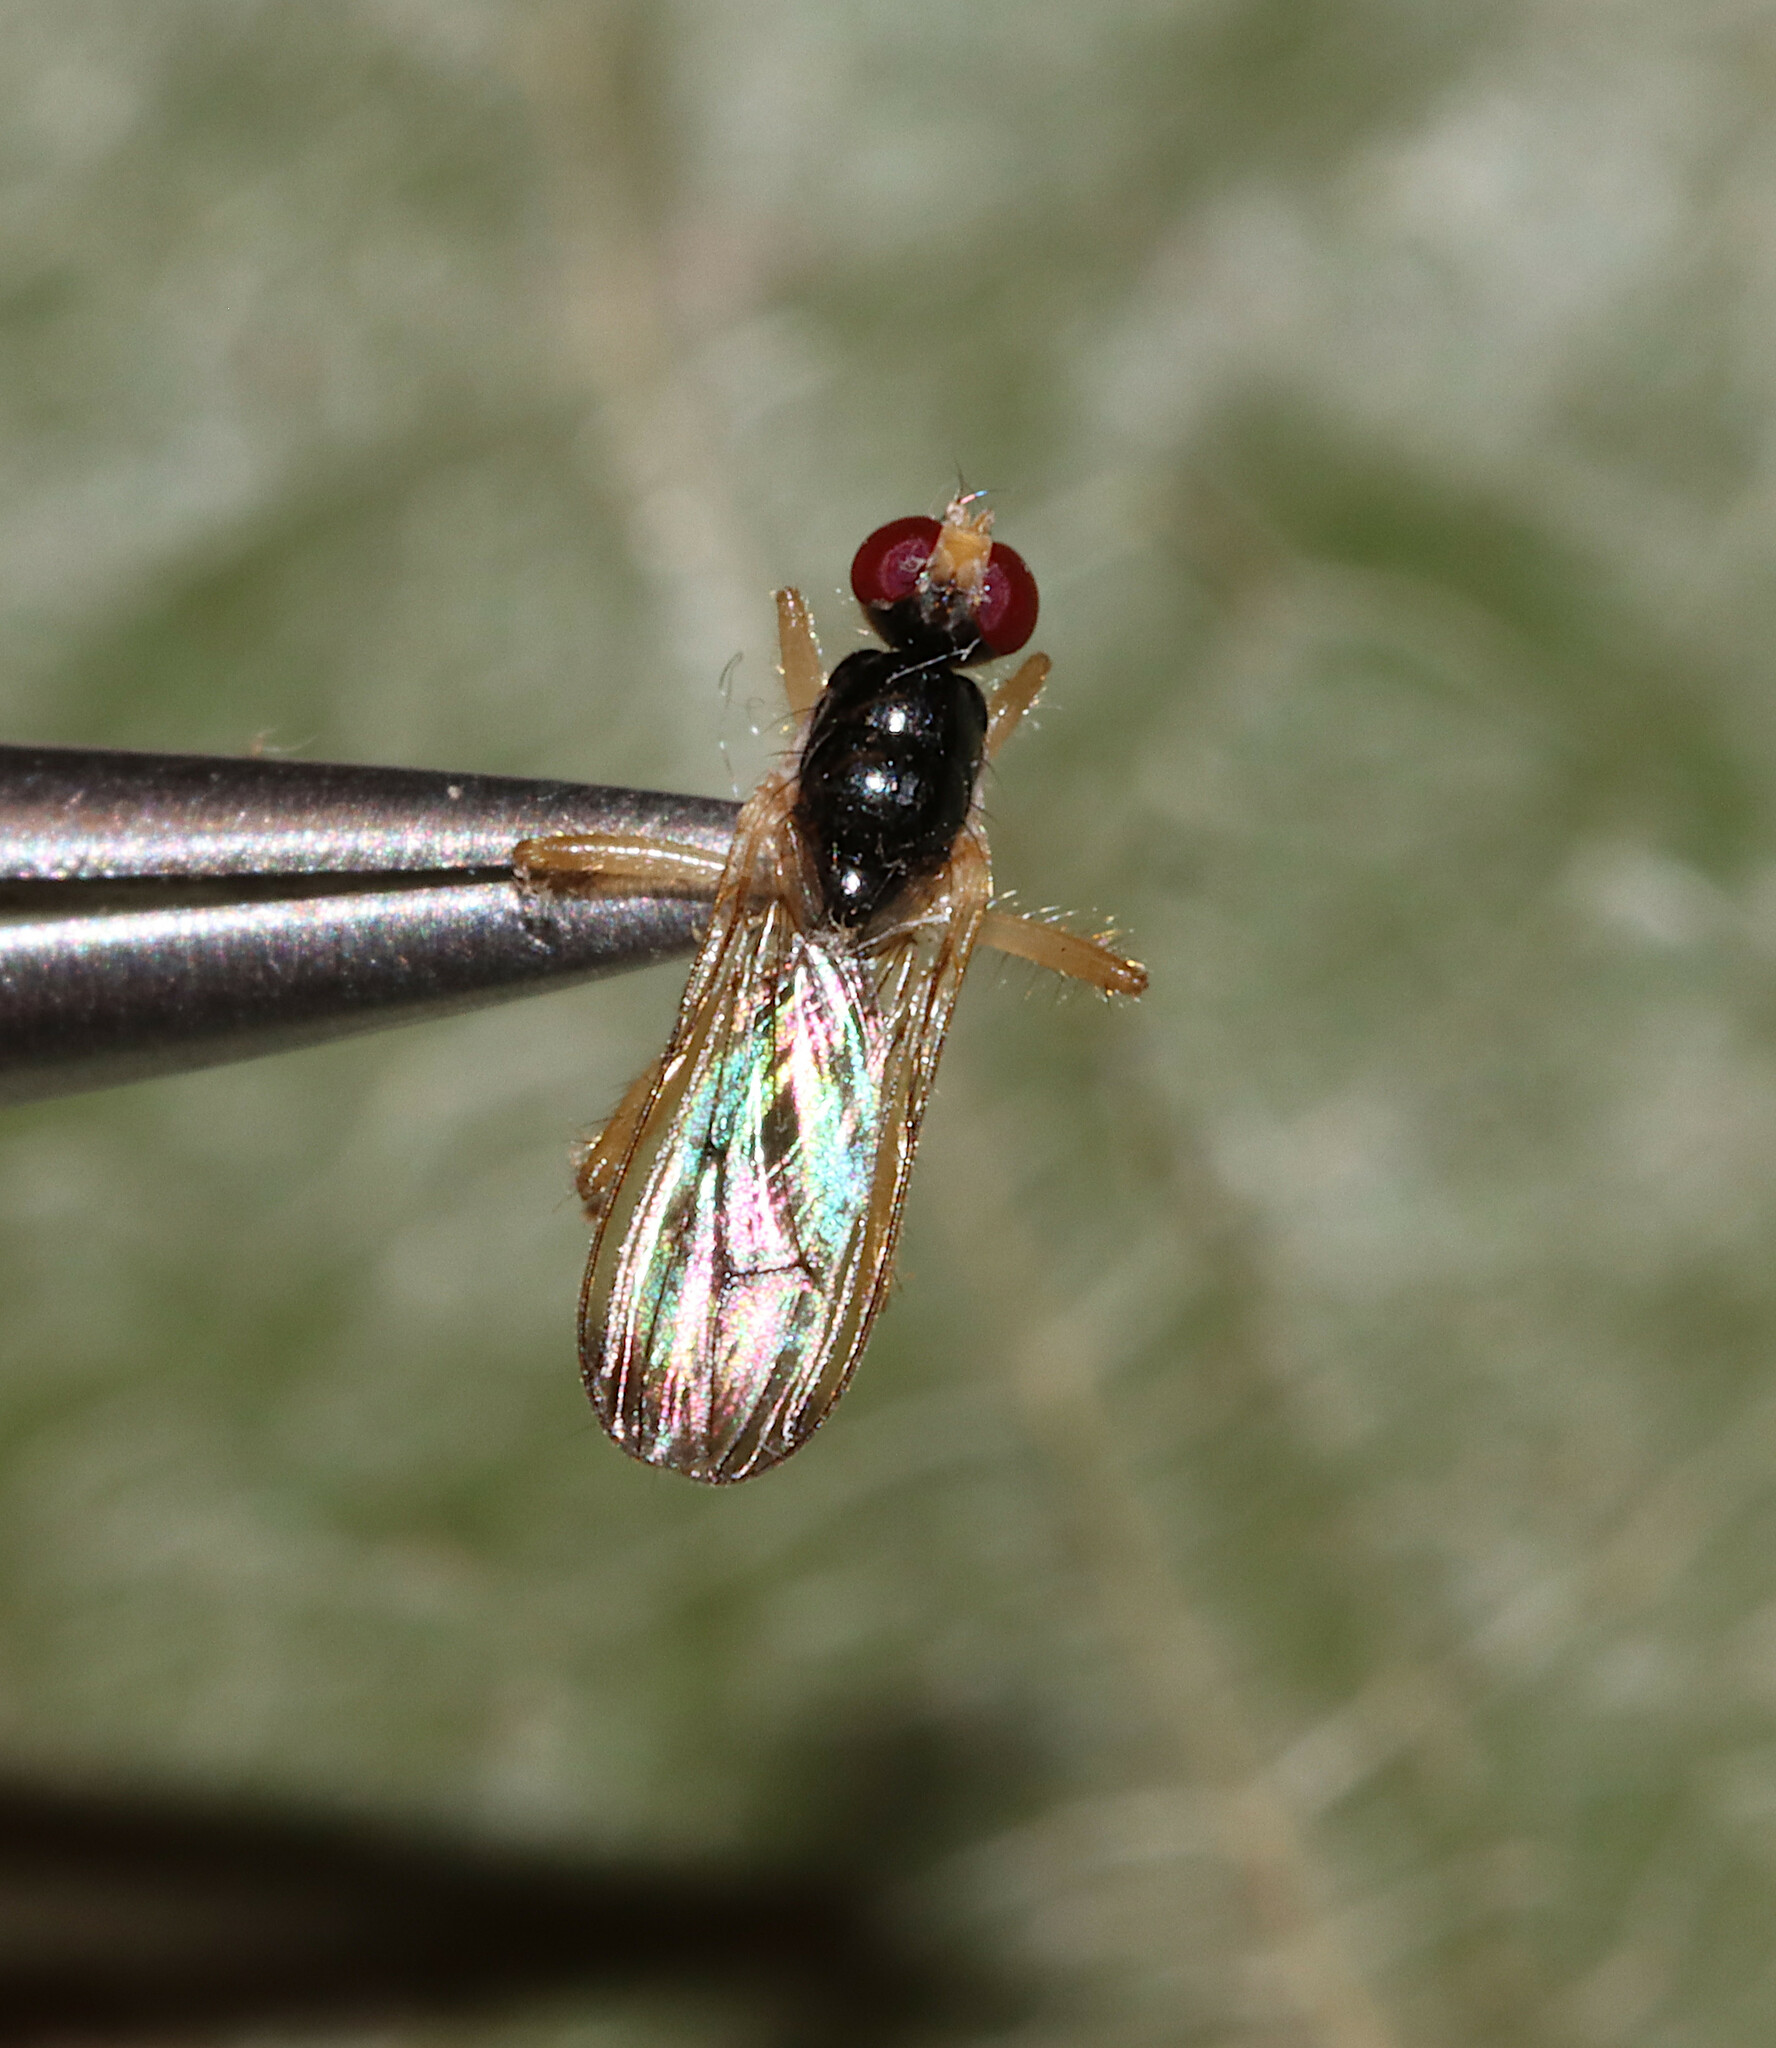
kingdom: Animalia
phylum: Arthropoda
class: Insecta
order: Diptera
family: Scathophagidae
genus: Cordilura
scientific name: Cordilura
